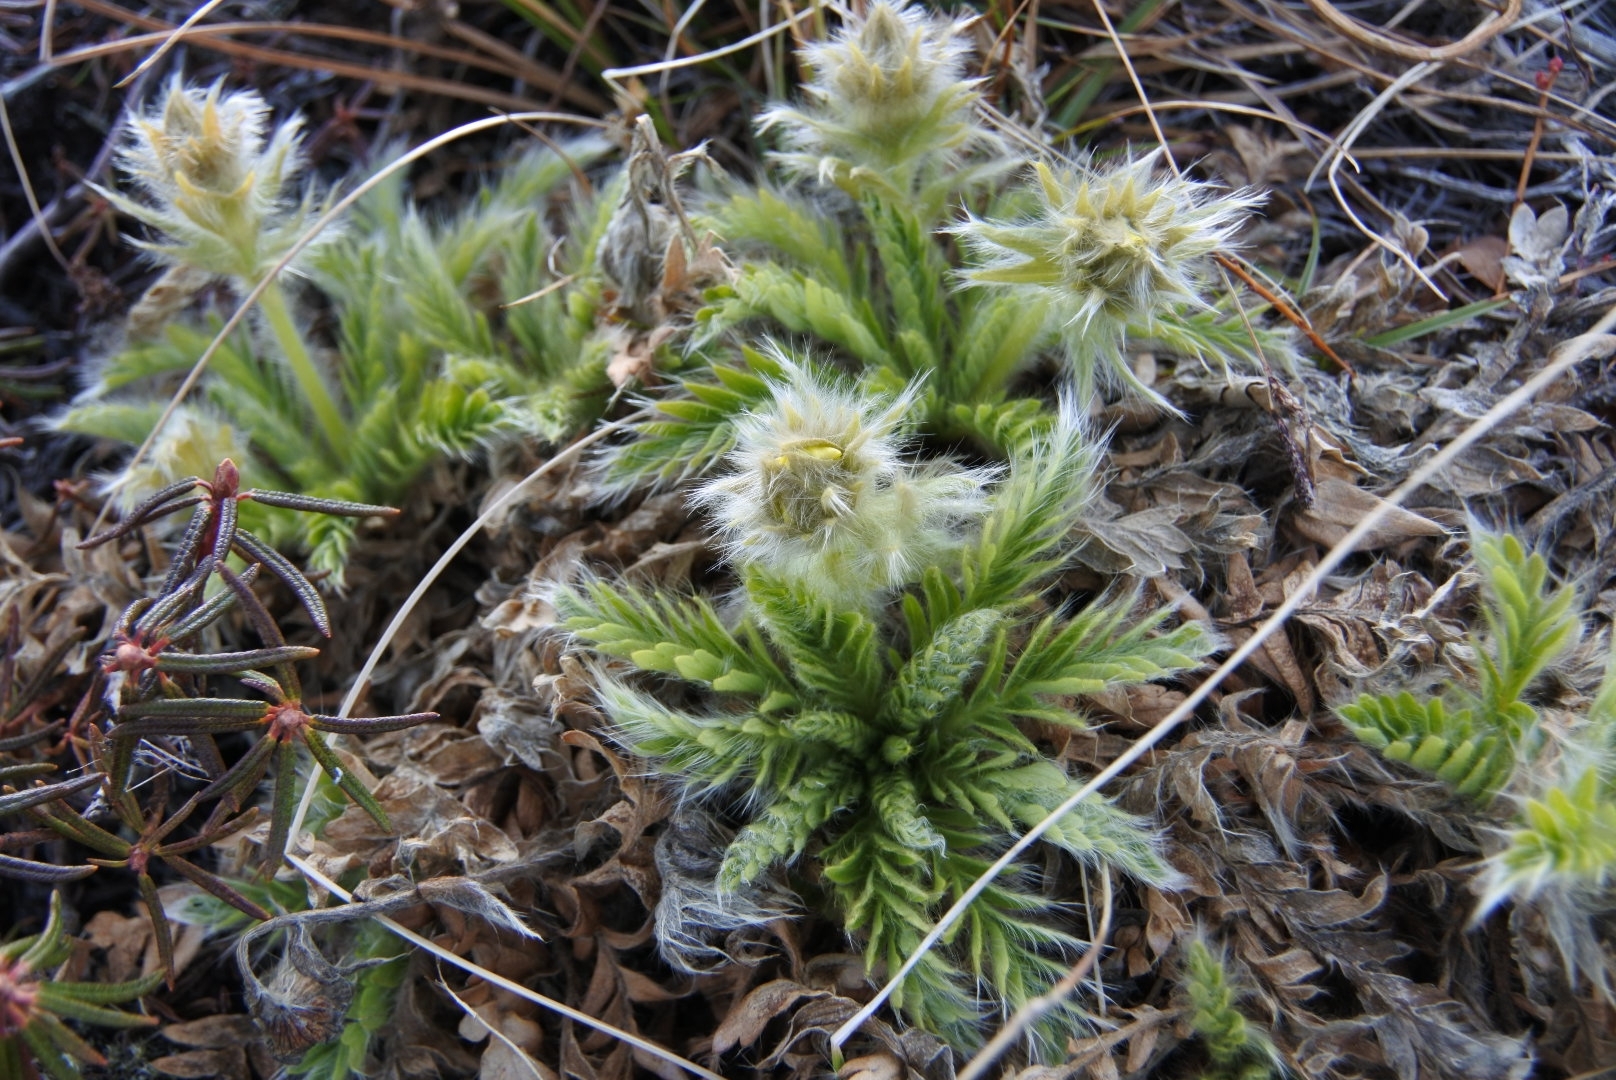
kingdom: Plantae
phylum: Tracheophyta
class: Magnoliopsida
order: Rosales
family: Rosaceae
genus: Geum
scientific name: Geum glaciale
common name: Glacier avens
